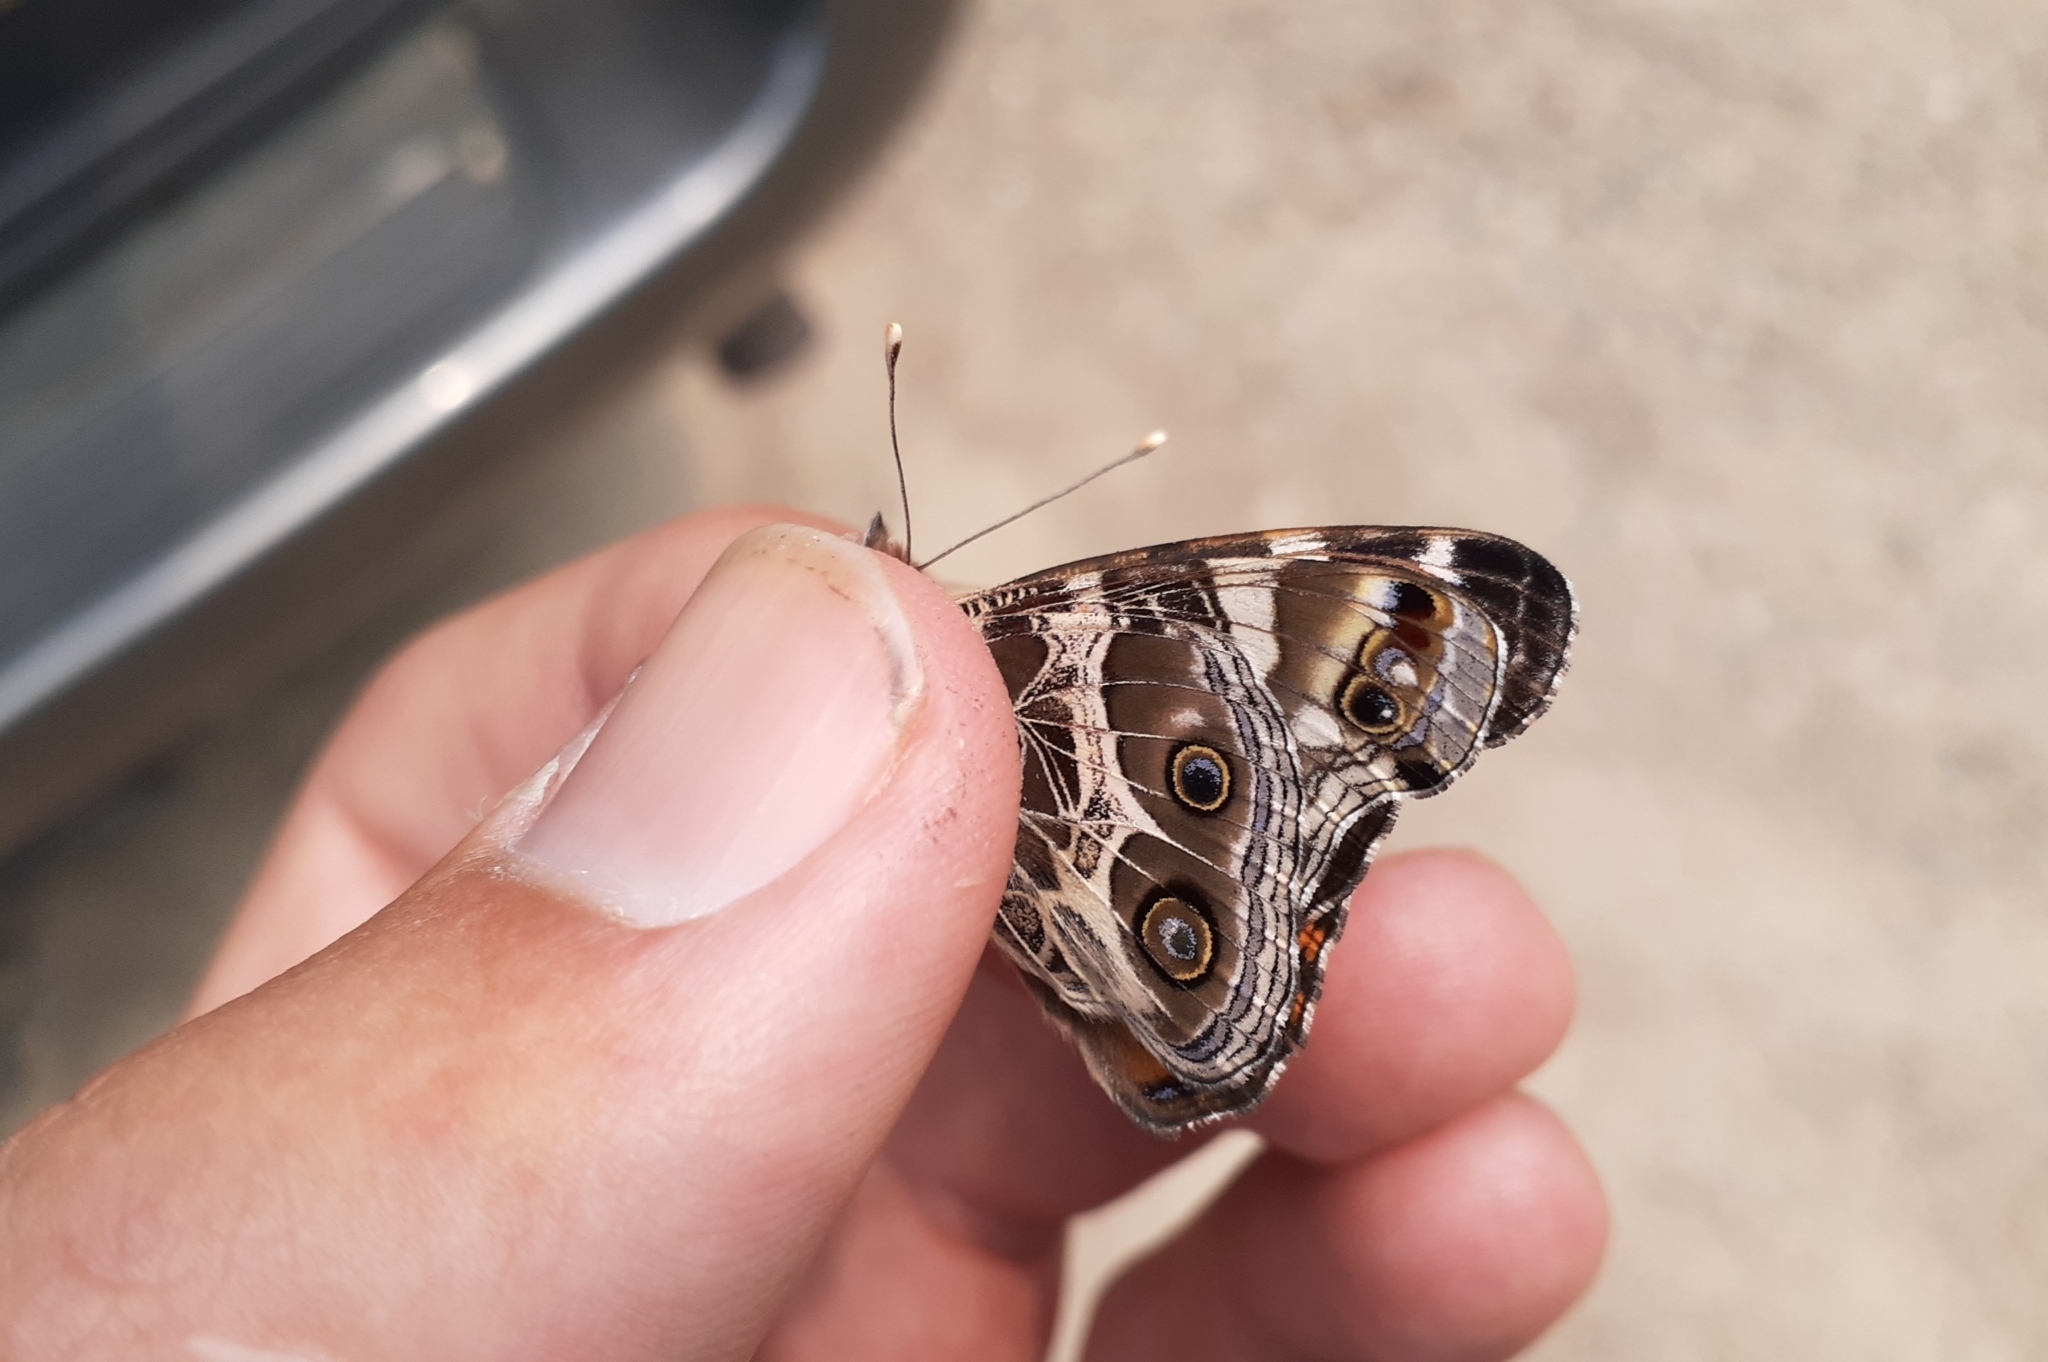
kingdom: Animalia
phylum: Arthropoda
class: Insecta
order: Lepidoptera
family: Nymphalidae
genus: Vanessa
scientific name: Vanessa virginiensis
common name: American lady
